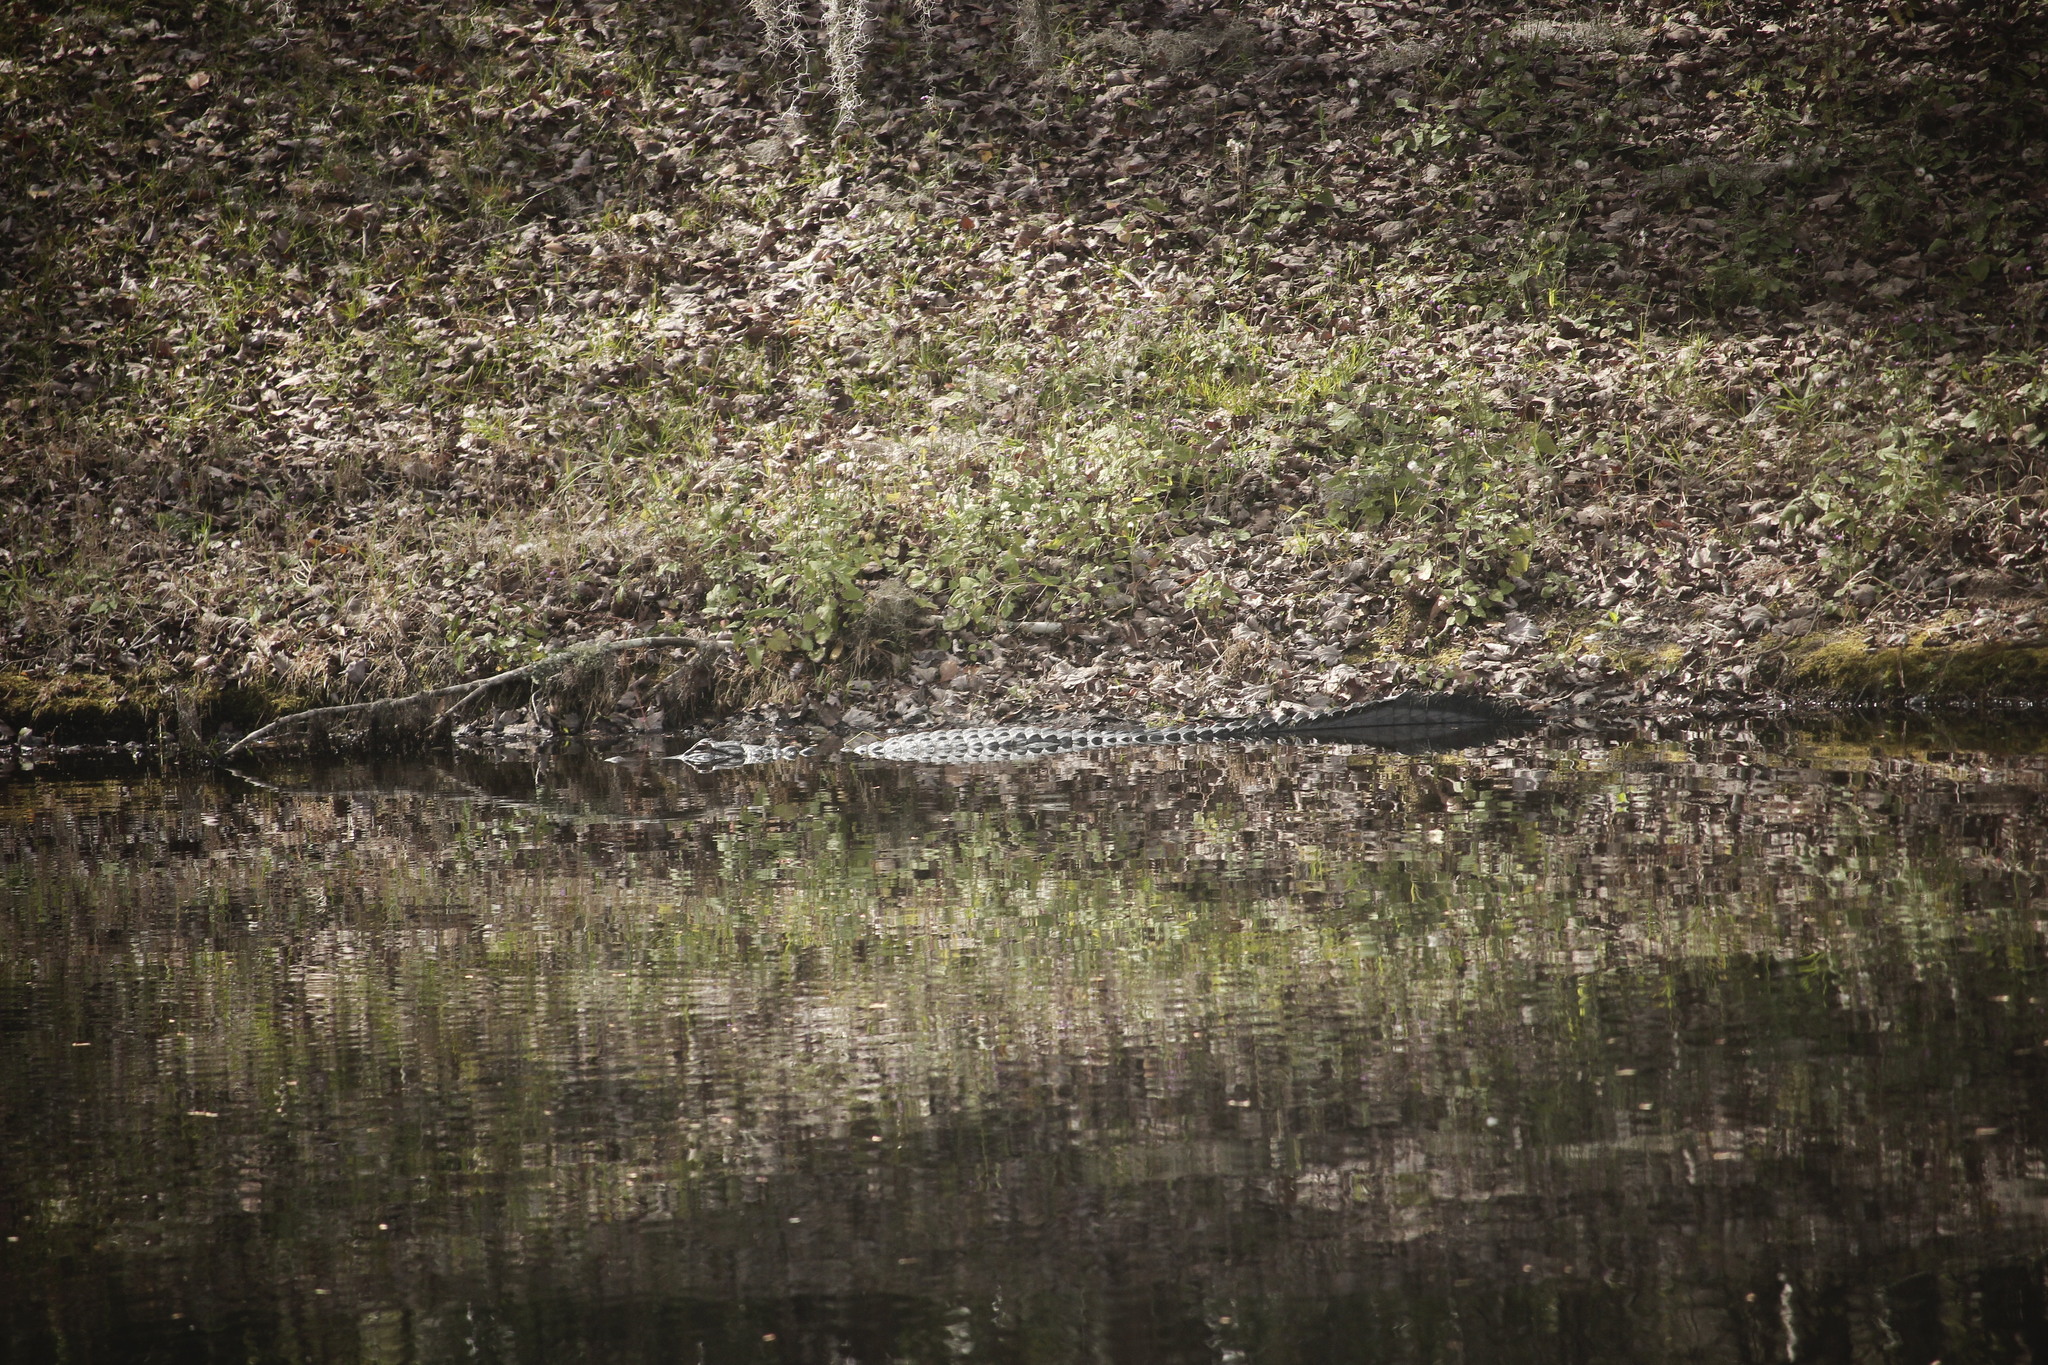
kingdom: Animalia
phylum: Chordata
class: Crocodylia
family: Alligatoridae
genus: Alligator
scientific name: Alligator mississippiensis
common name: American alligator
